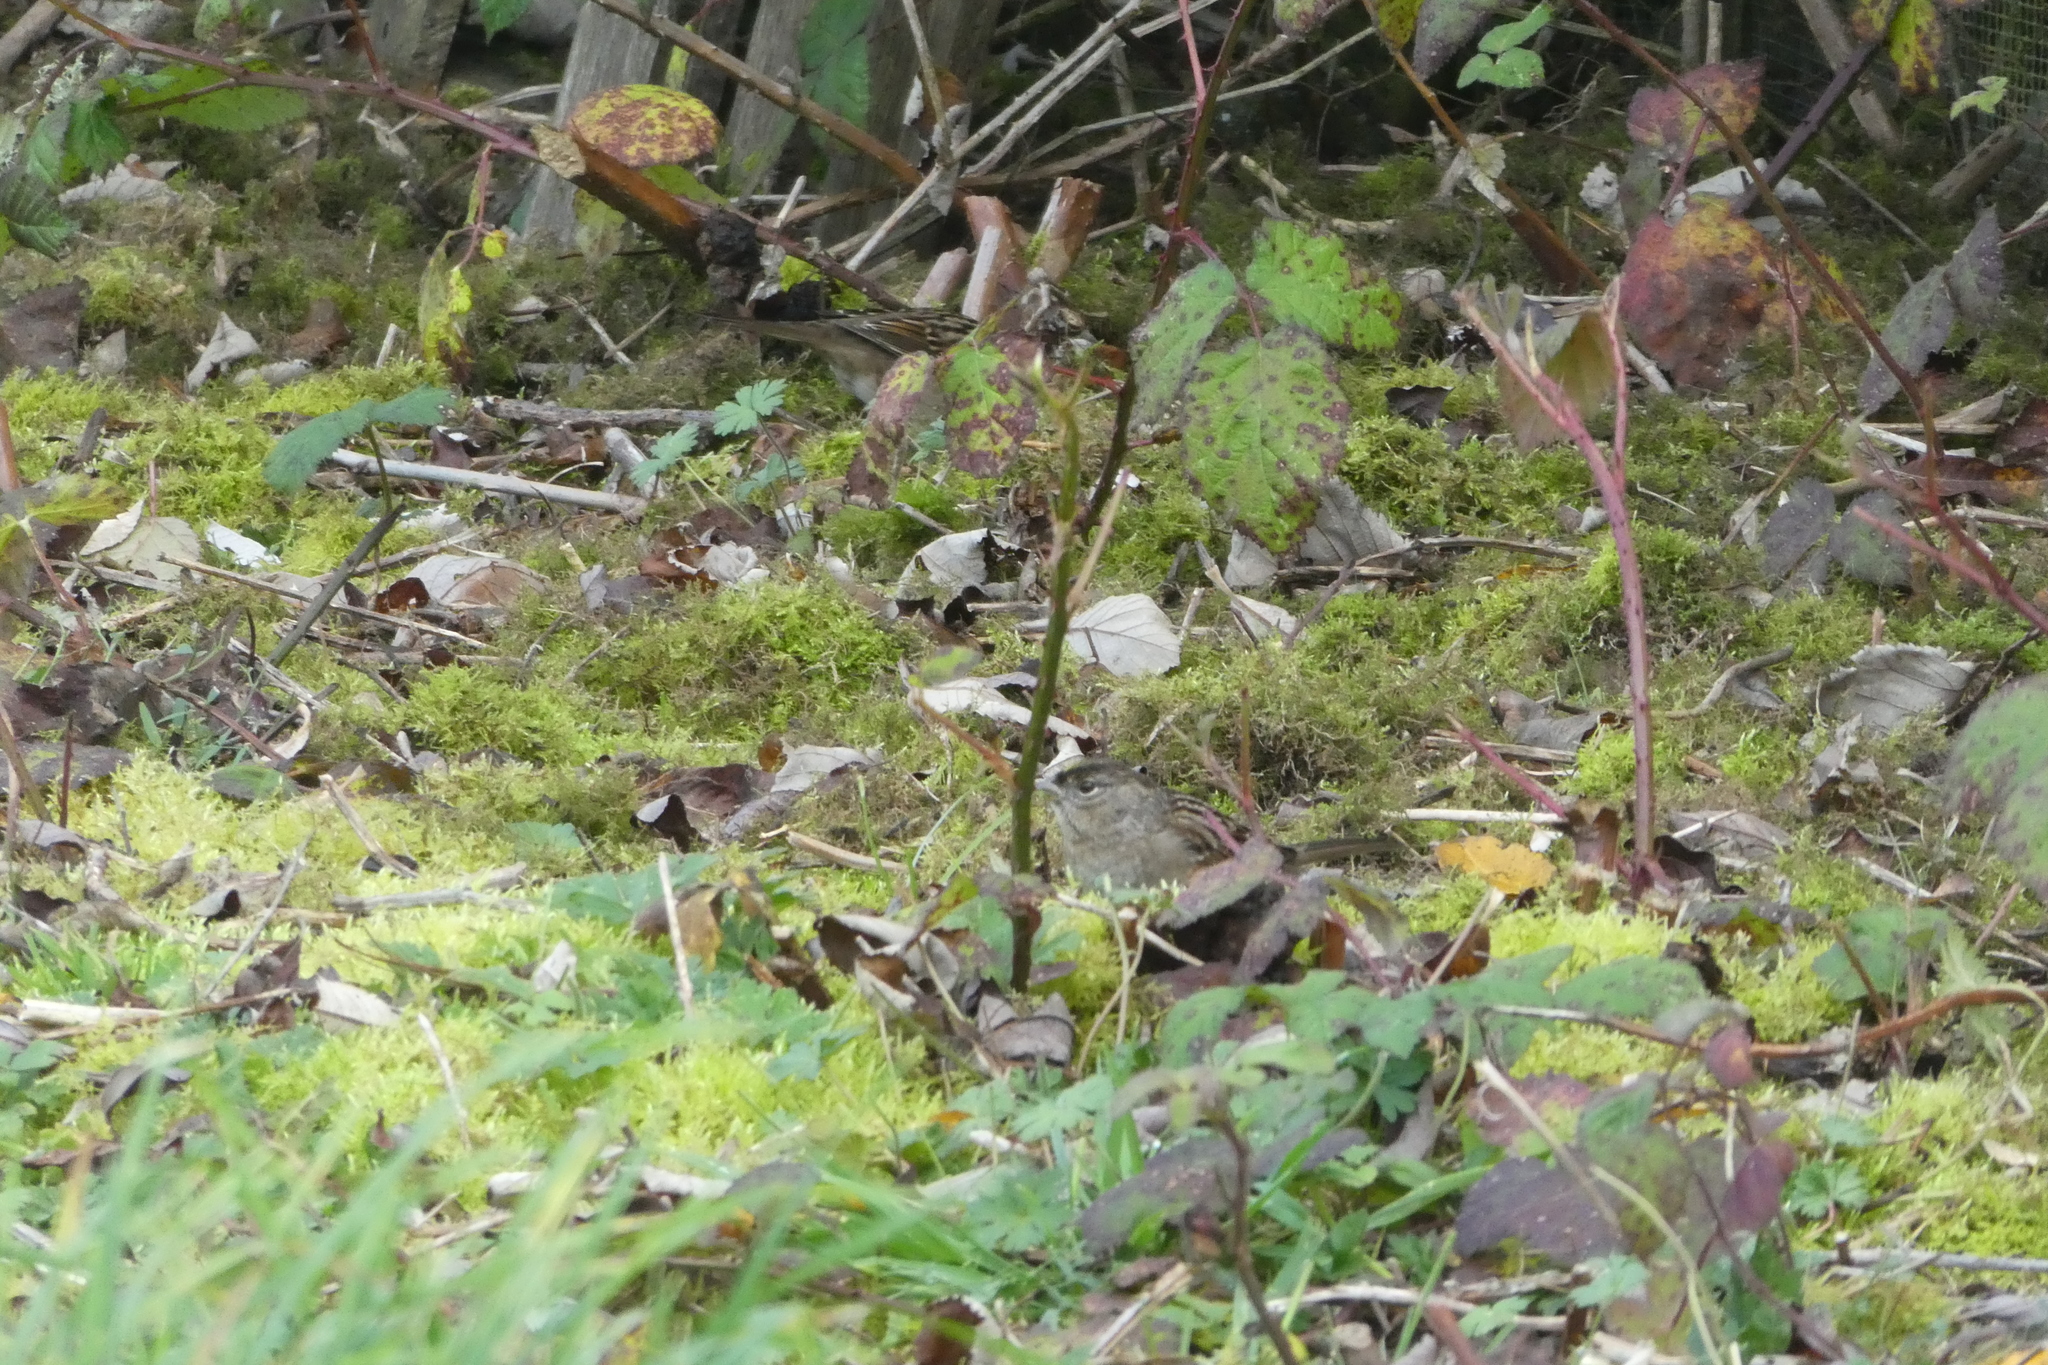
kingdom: Animalia
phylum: Chordata
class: Aves
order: Passeriformes
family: Passerellidae
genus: Zonotrichia
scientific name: Zonotrichia atricapilla
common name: Golden-crowned sparrow
